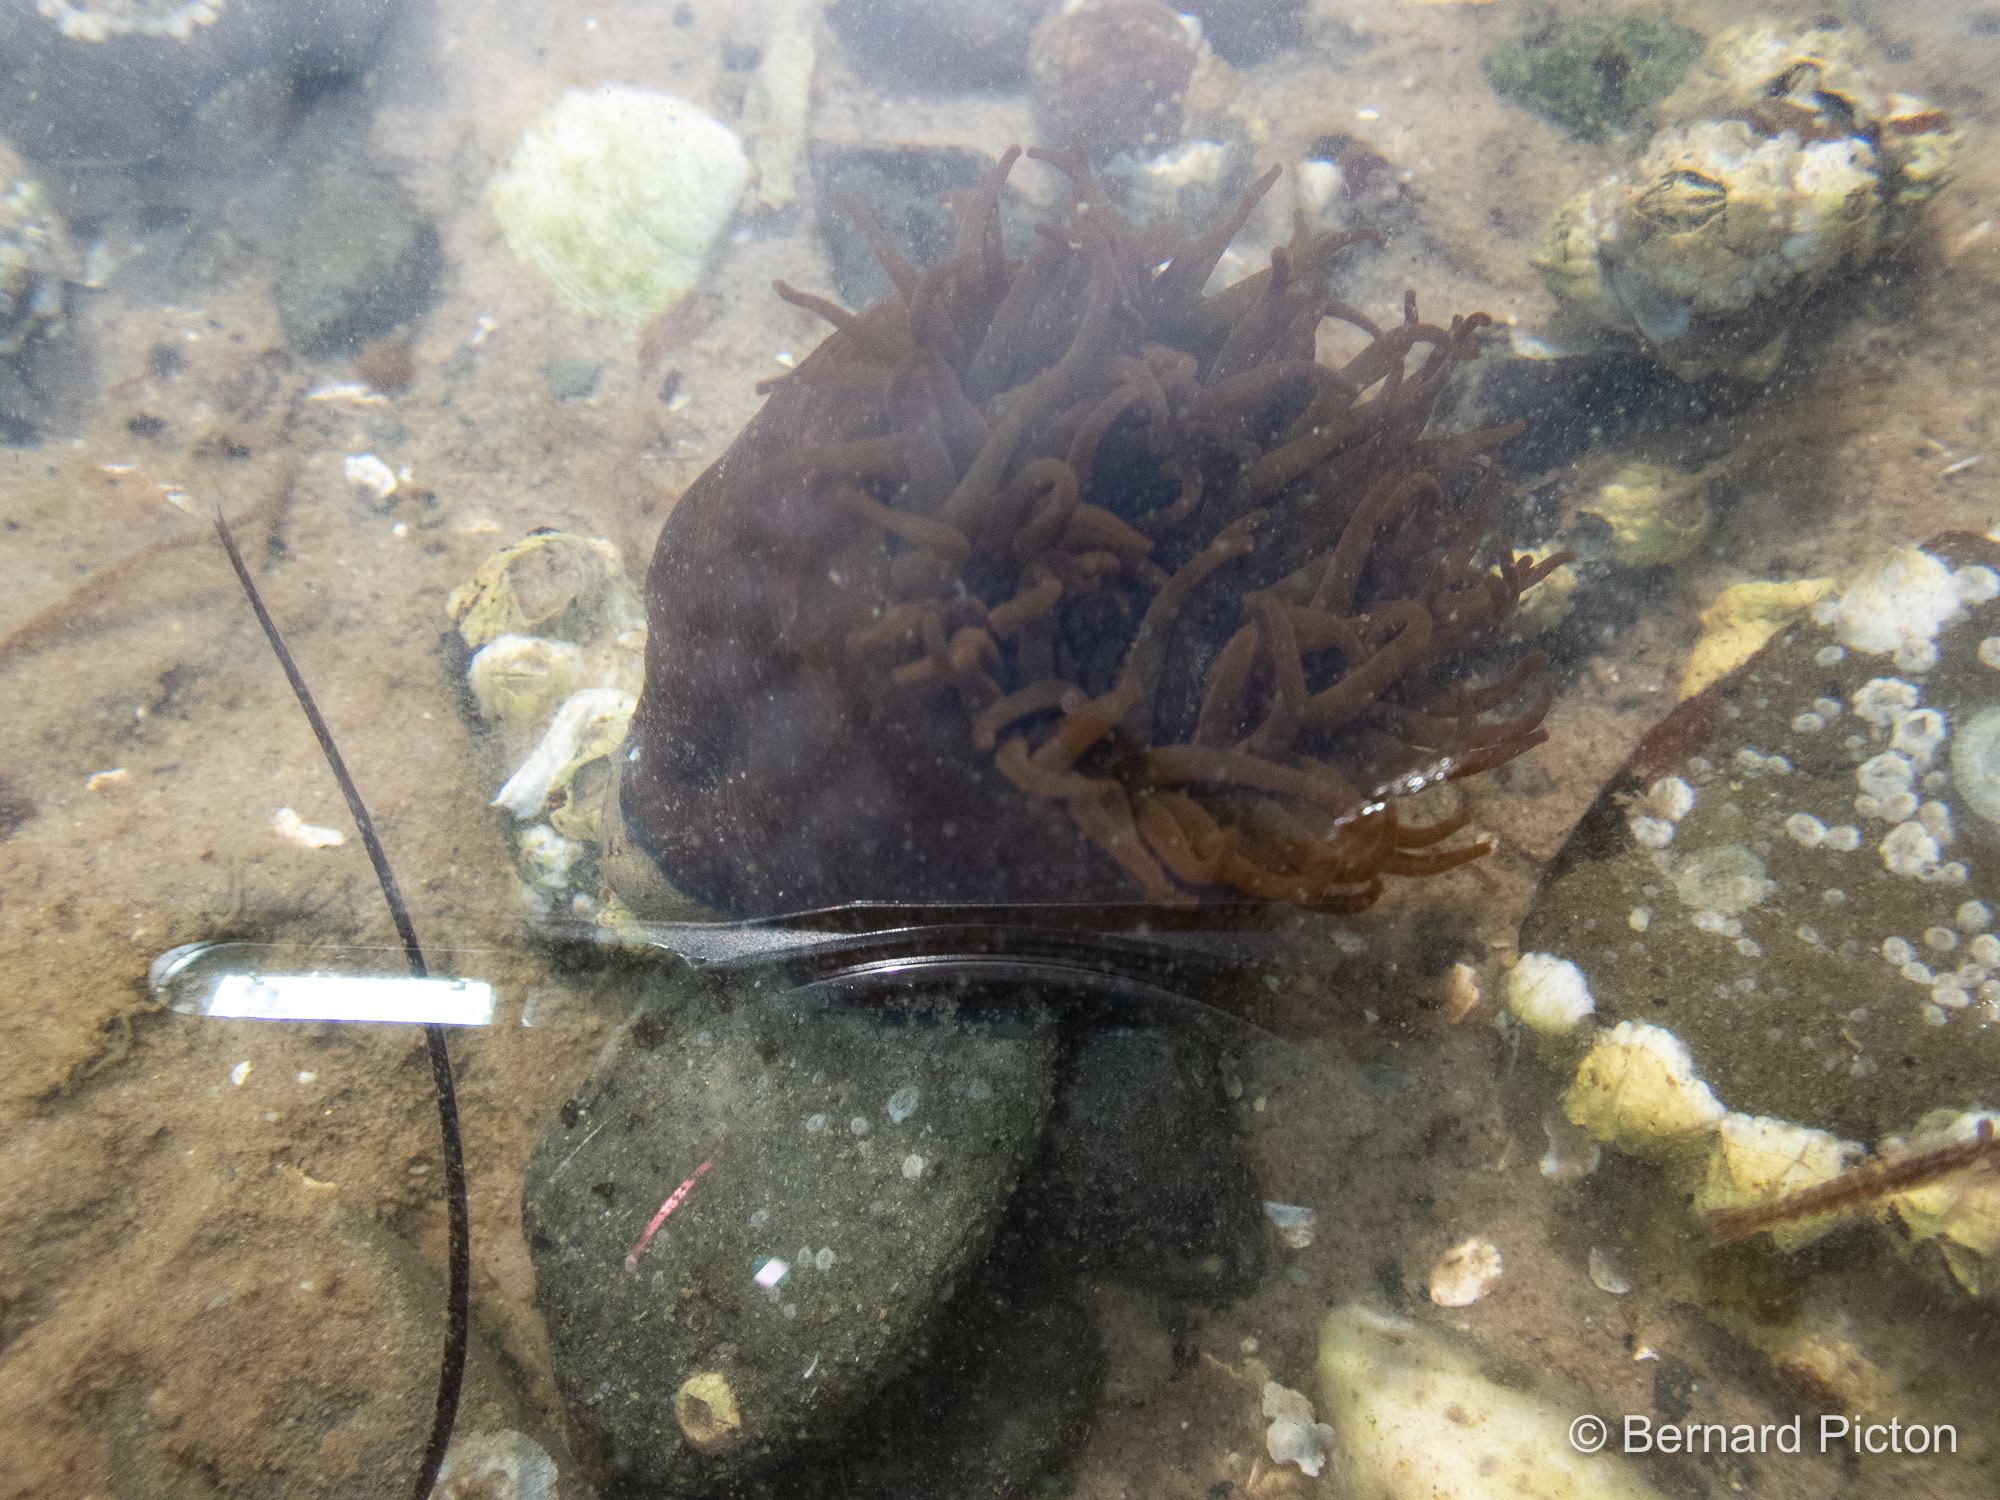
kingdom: Animalia
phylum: Cnidaria
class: Anthozoa
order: Actiniaria
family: Actiniidae
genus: Actinia
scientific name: Actinia equina
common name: Beadlet anemone
